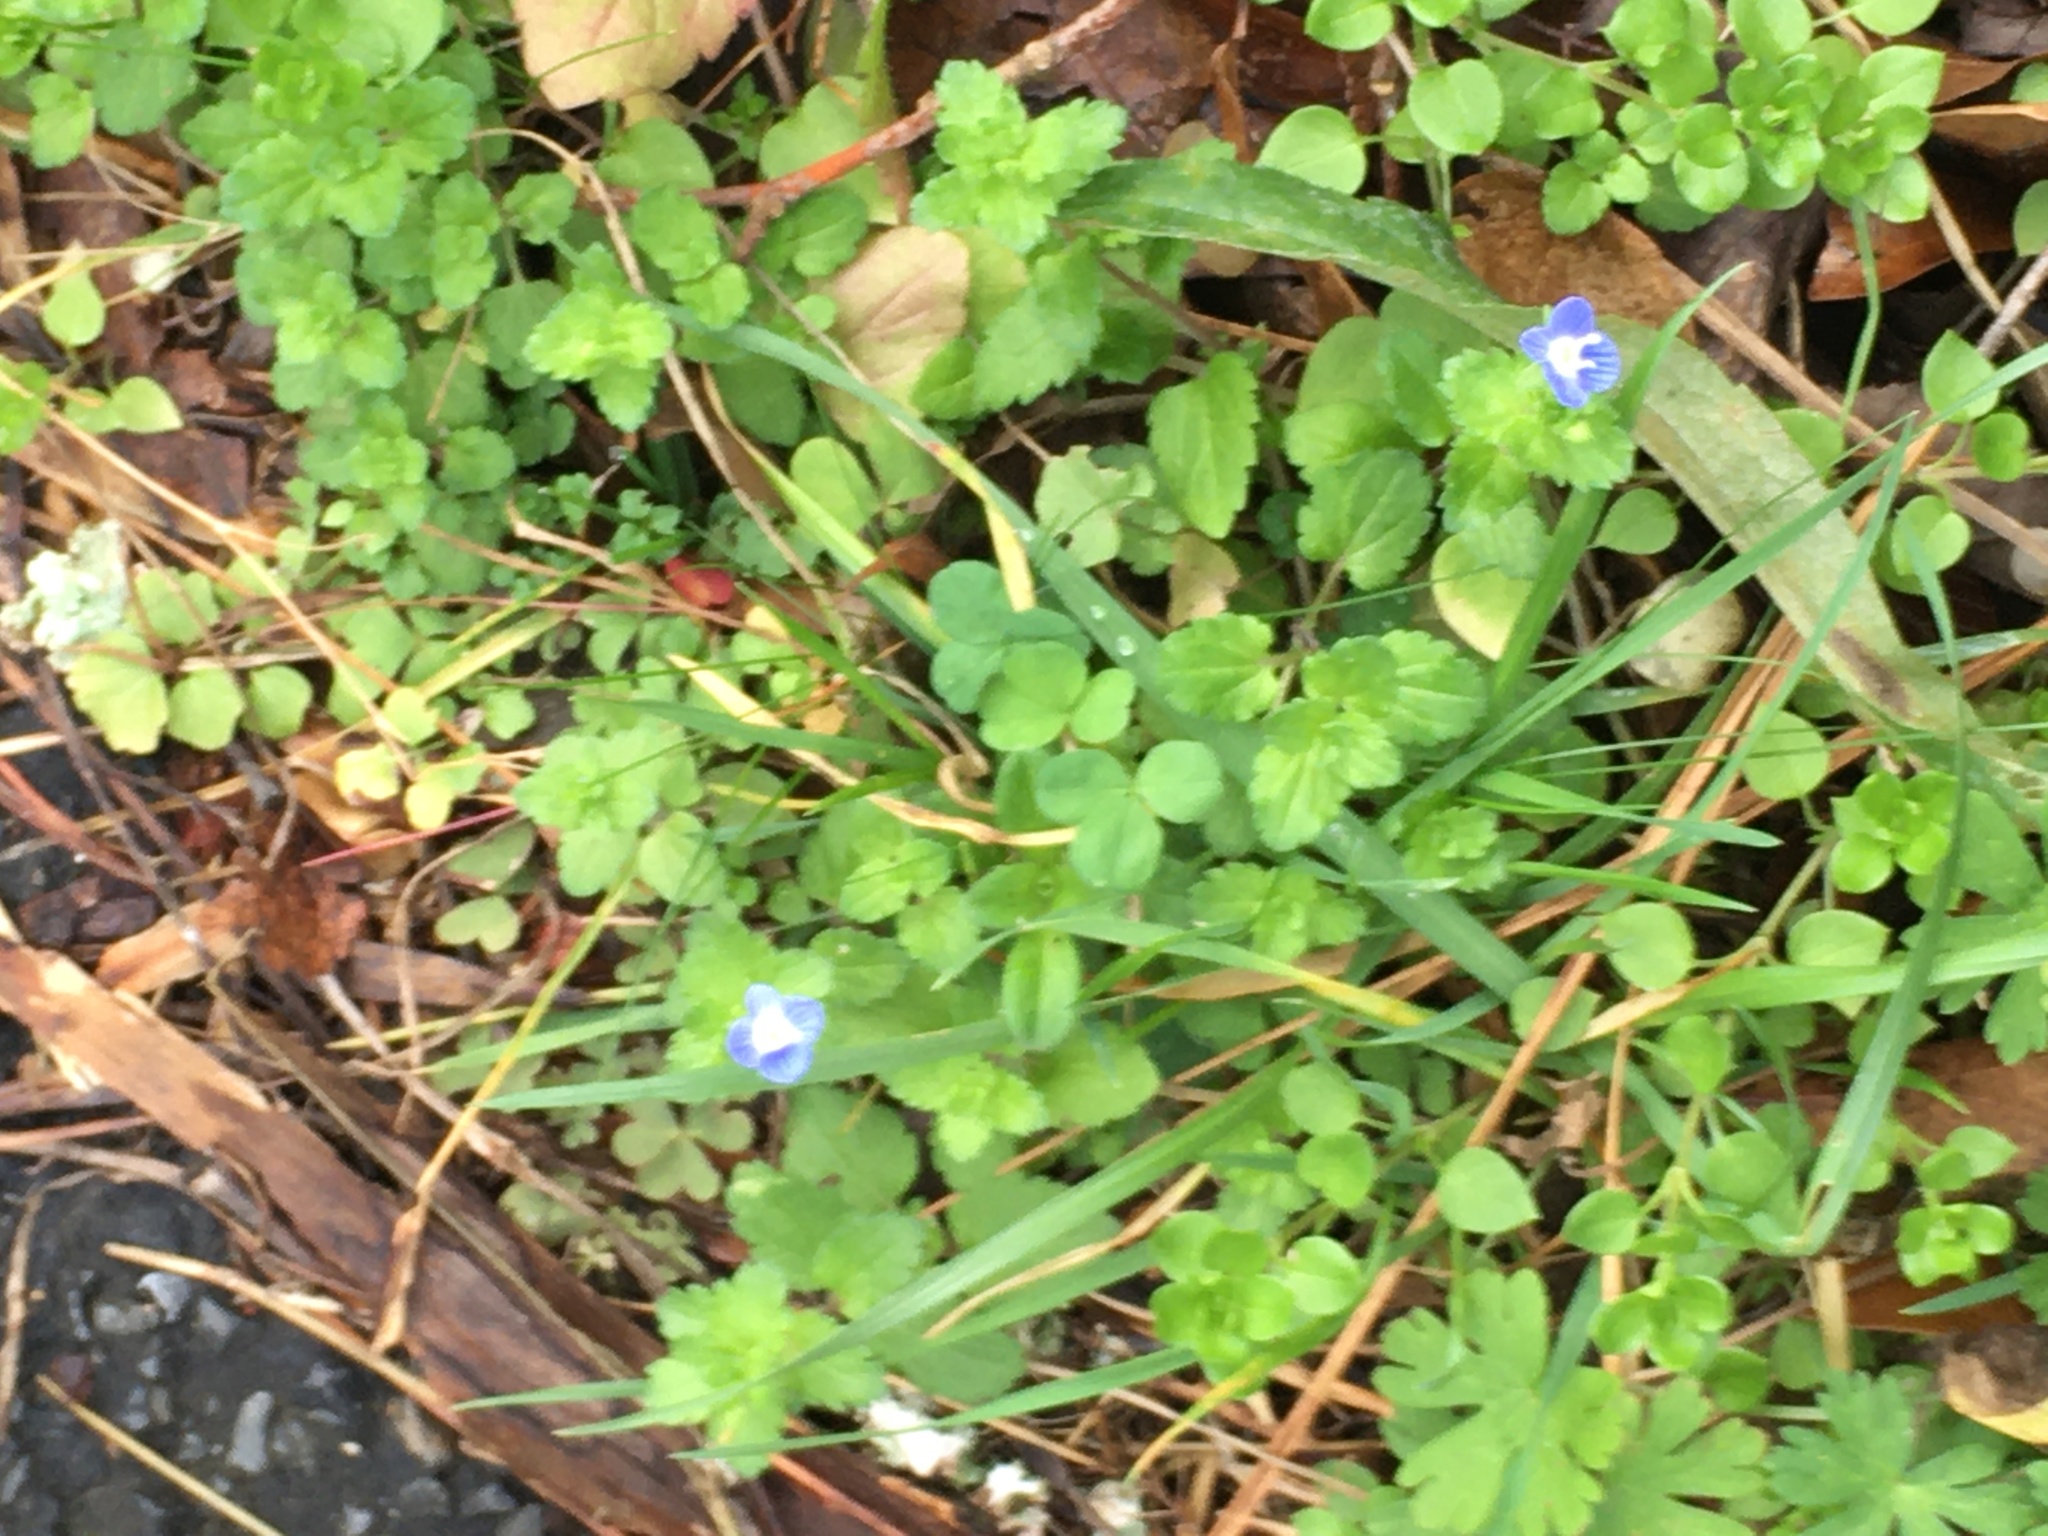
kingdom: Plantae
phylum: Tracheophyta
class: Magnoliopsida
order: Lamiales
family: Plantaginaceae
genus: Veronica
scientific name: Veronica persica
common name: Common field-speedwell
